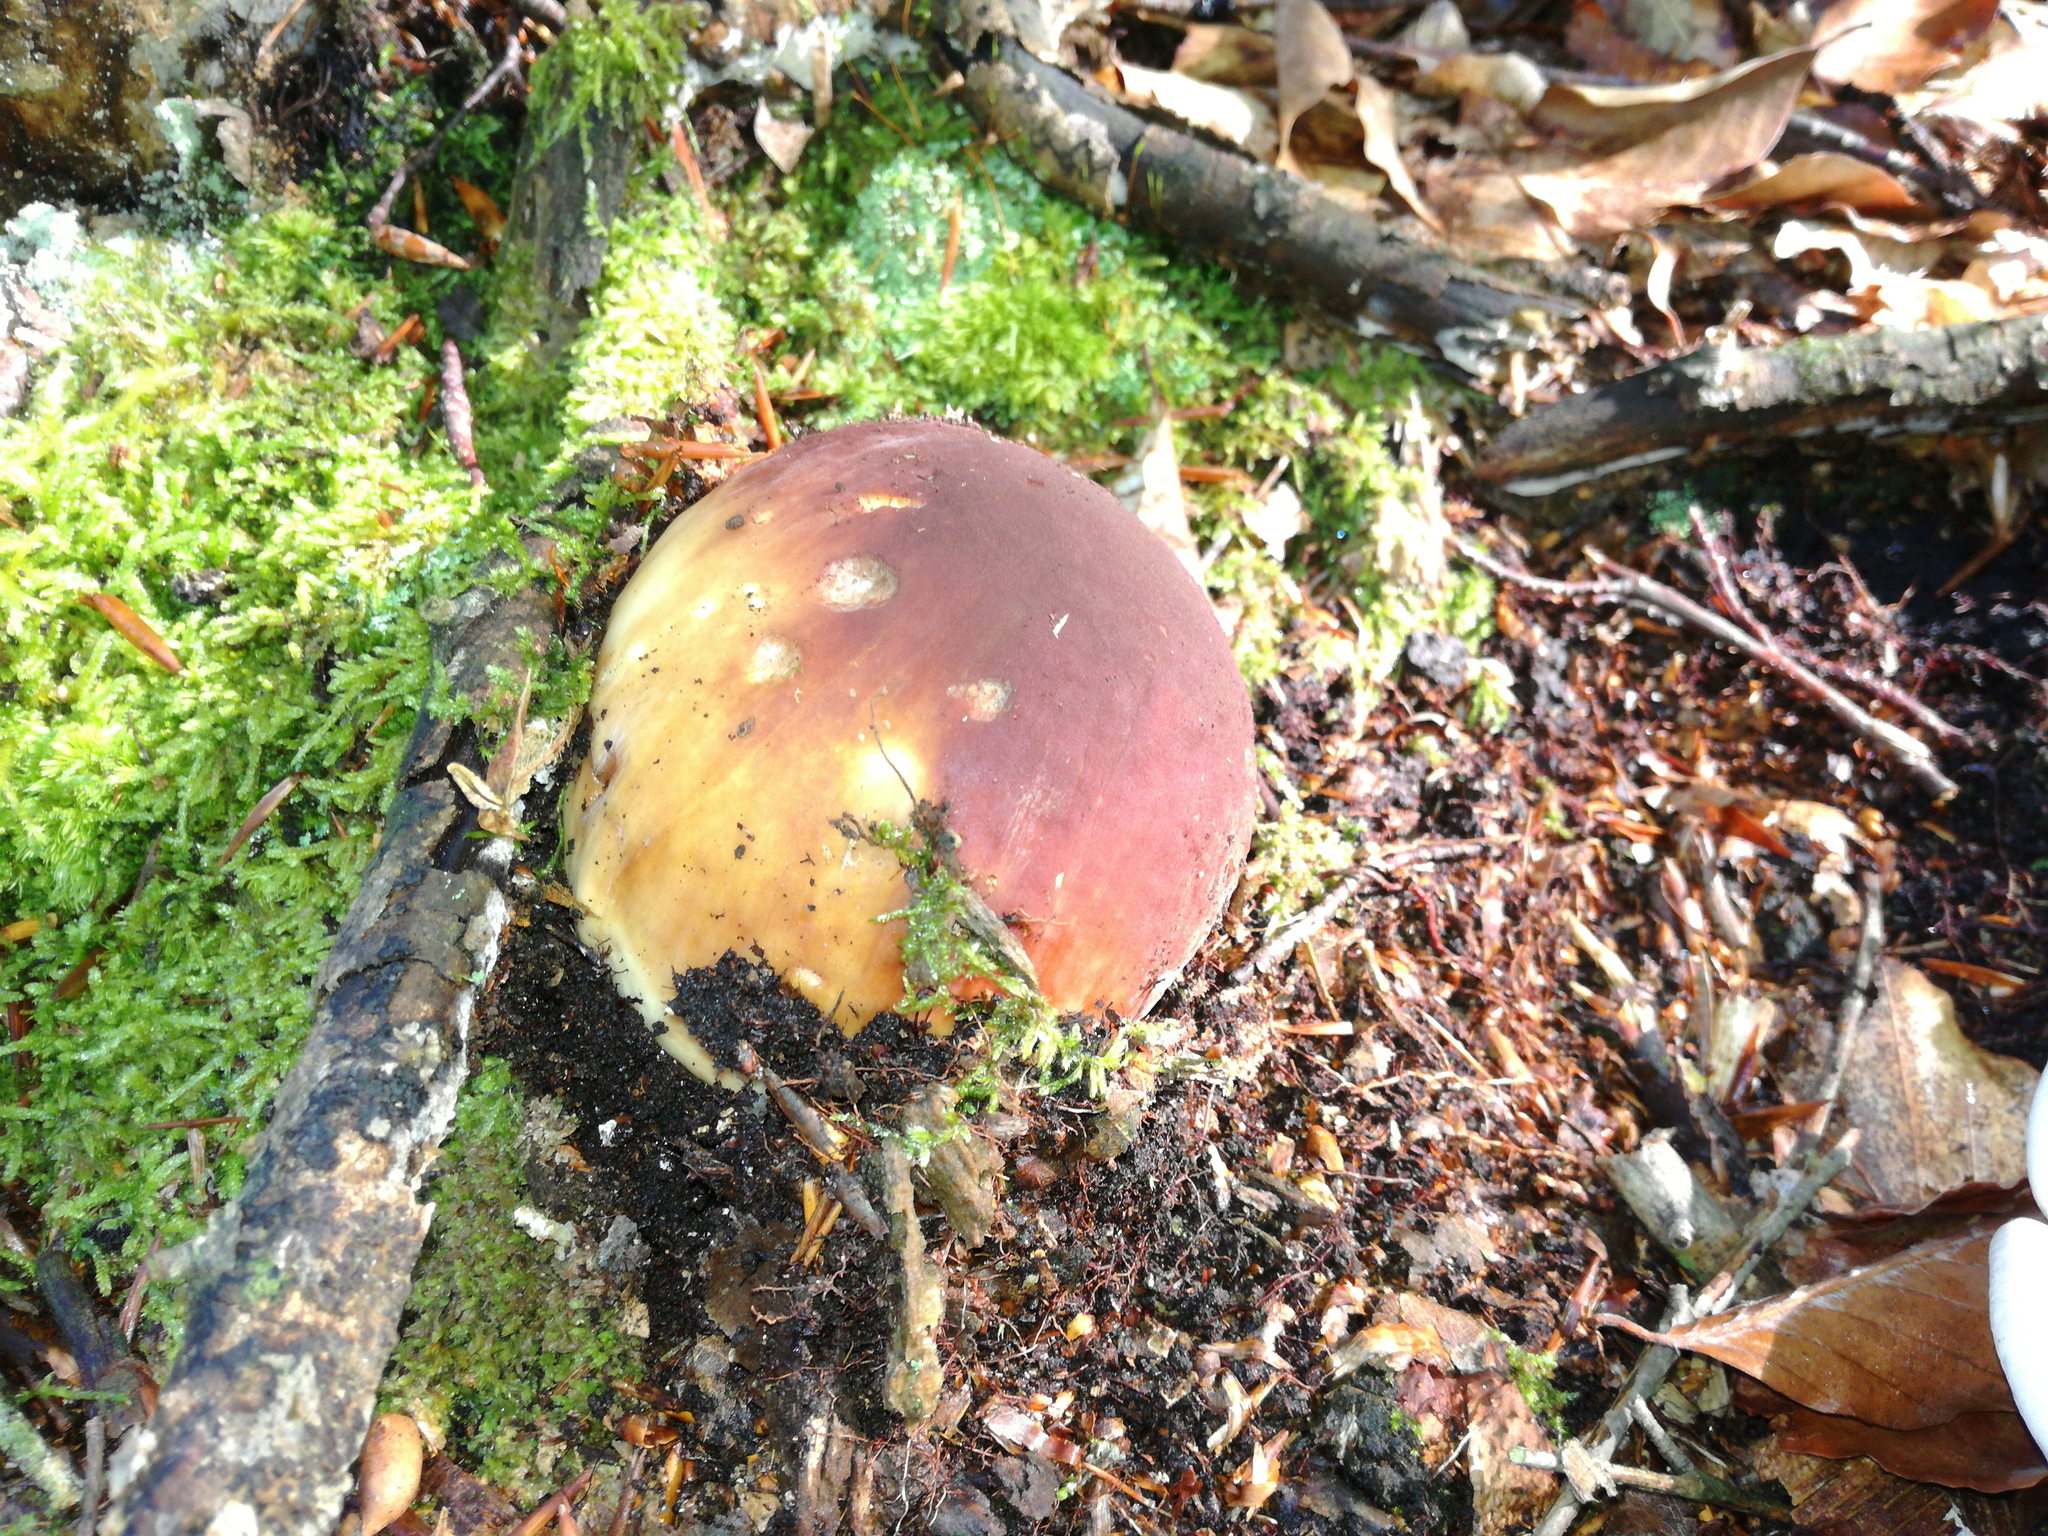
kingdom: Fungi
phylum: Basidiomycota
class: Agaricomycetes
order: Boletales
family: Boletaceae
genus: Boletus
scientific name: Boletus edulis
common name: Cep
